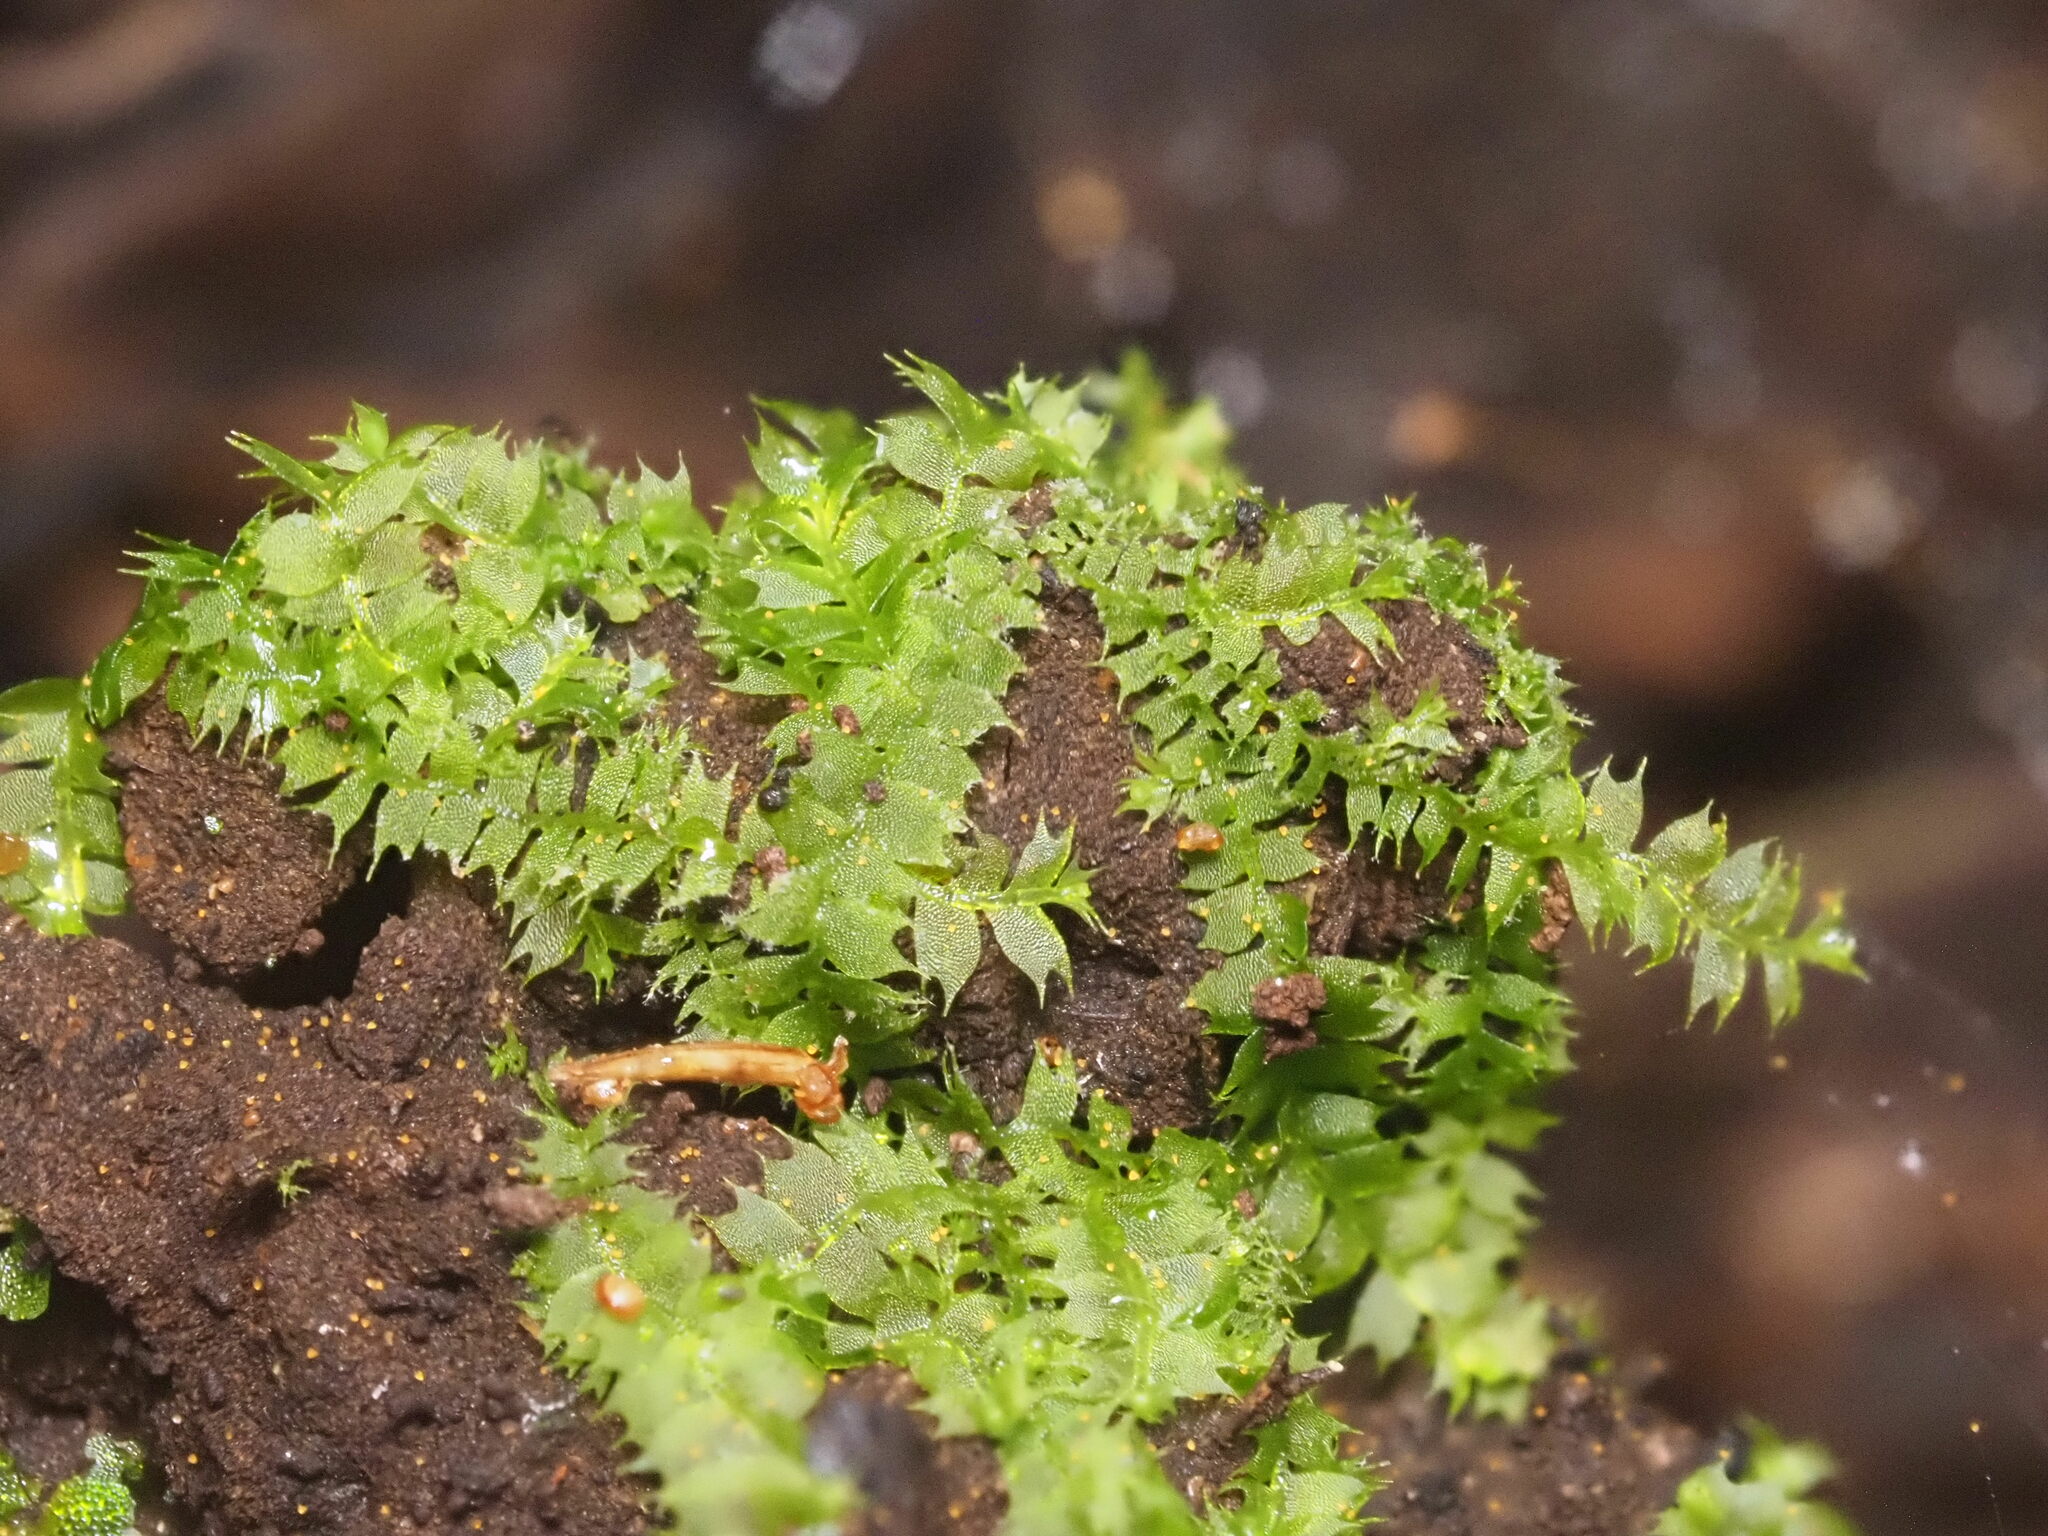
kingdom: Plantae
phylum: Marchantiophyta
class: Jungermanniopsida
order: Jungermanniales
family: Lophocoleaceae
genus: Lophocolea
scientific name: Lophocolea hawaica
